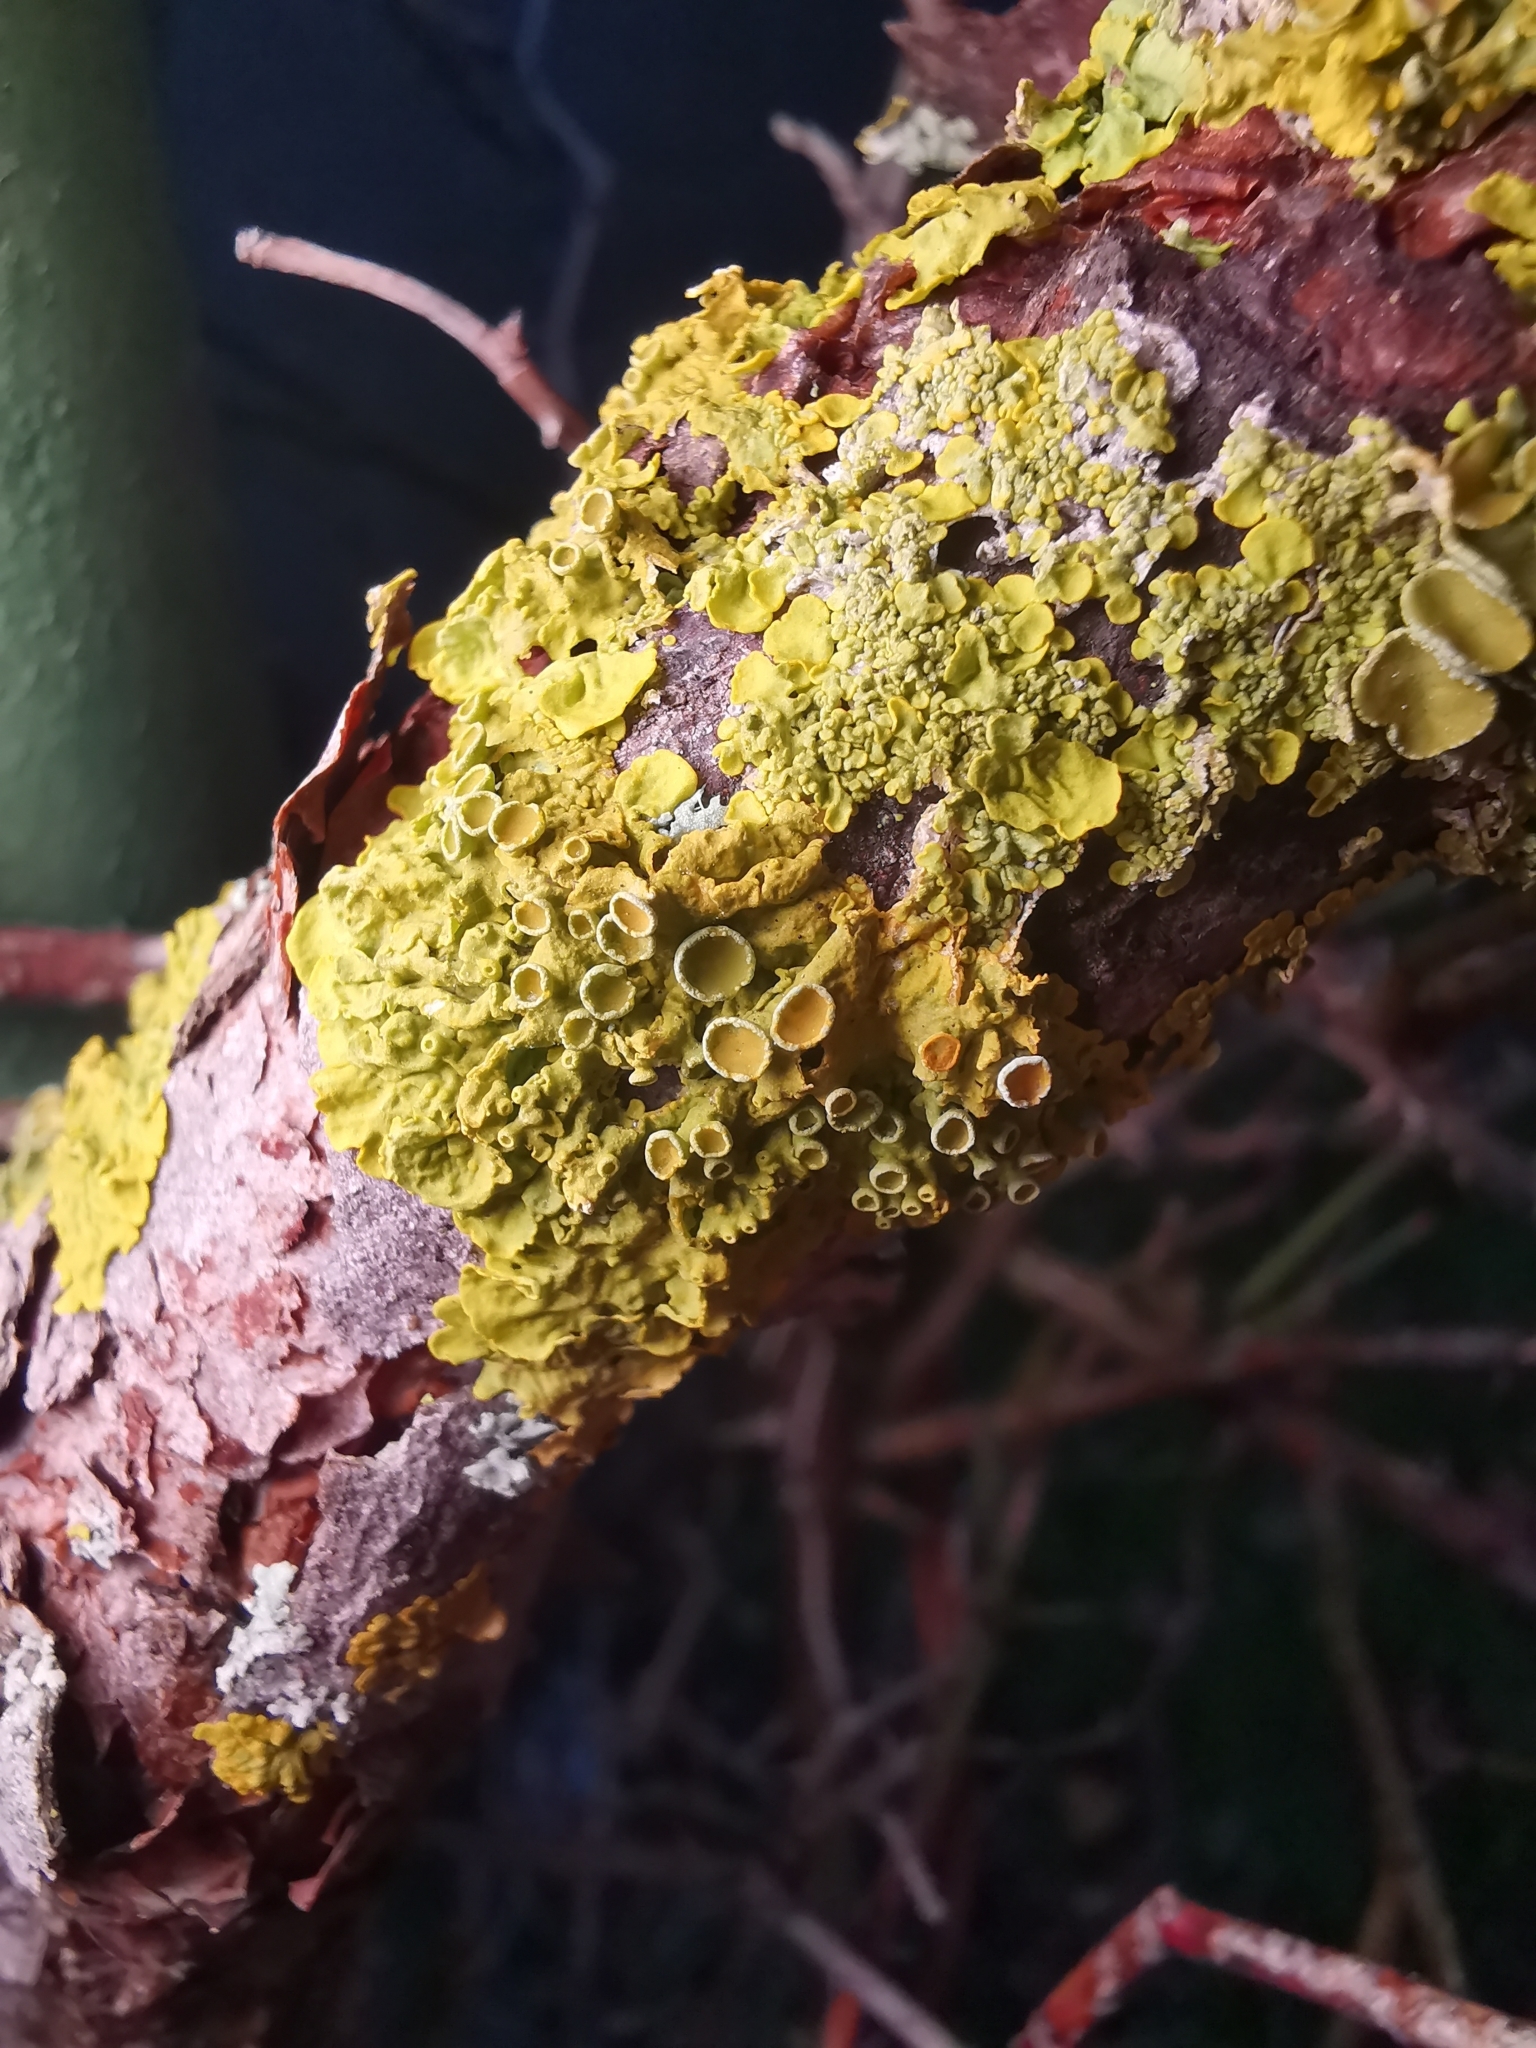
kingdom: Fungi
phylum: Ascomycota
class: Lecanoromycetes
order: Teloschistales
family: Teloschistaceae
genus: Xanthoria
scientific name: Xanthoria parietina
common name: Common orange lichen
